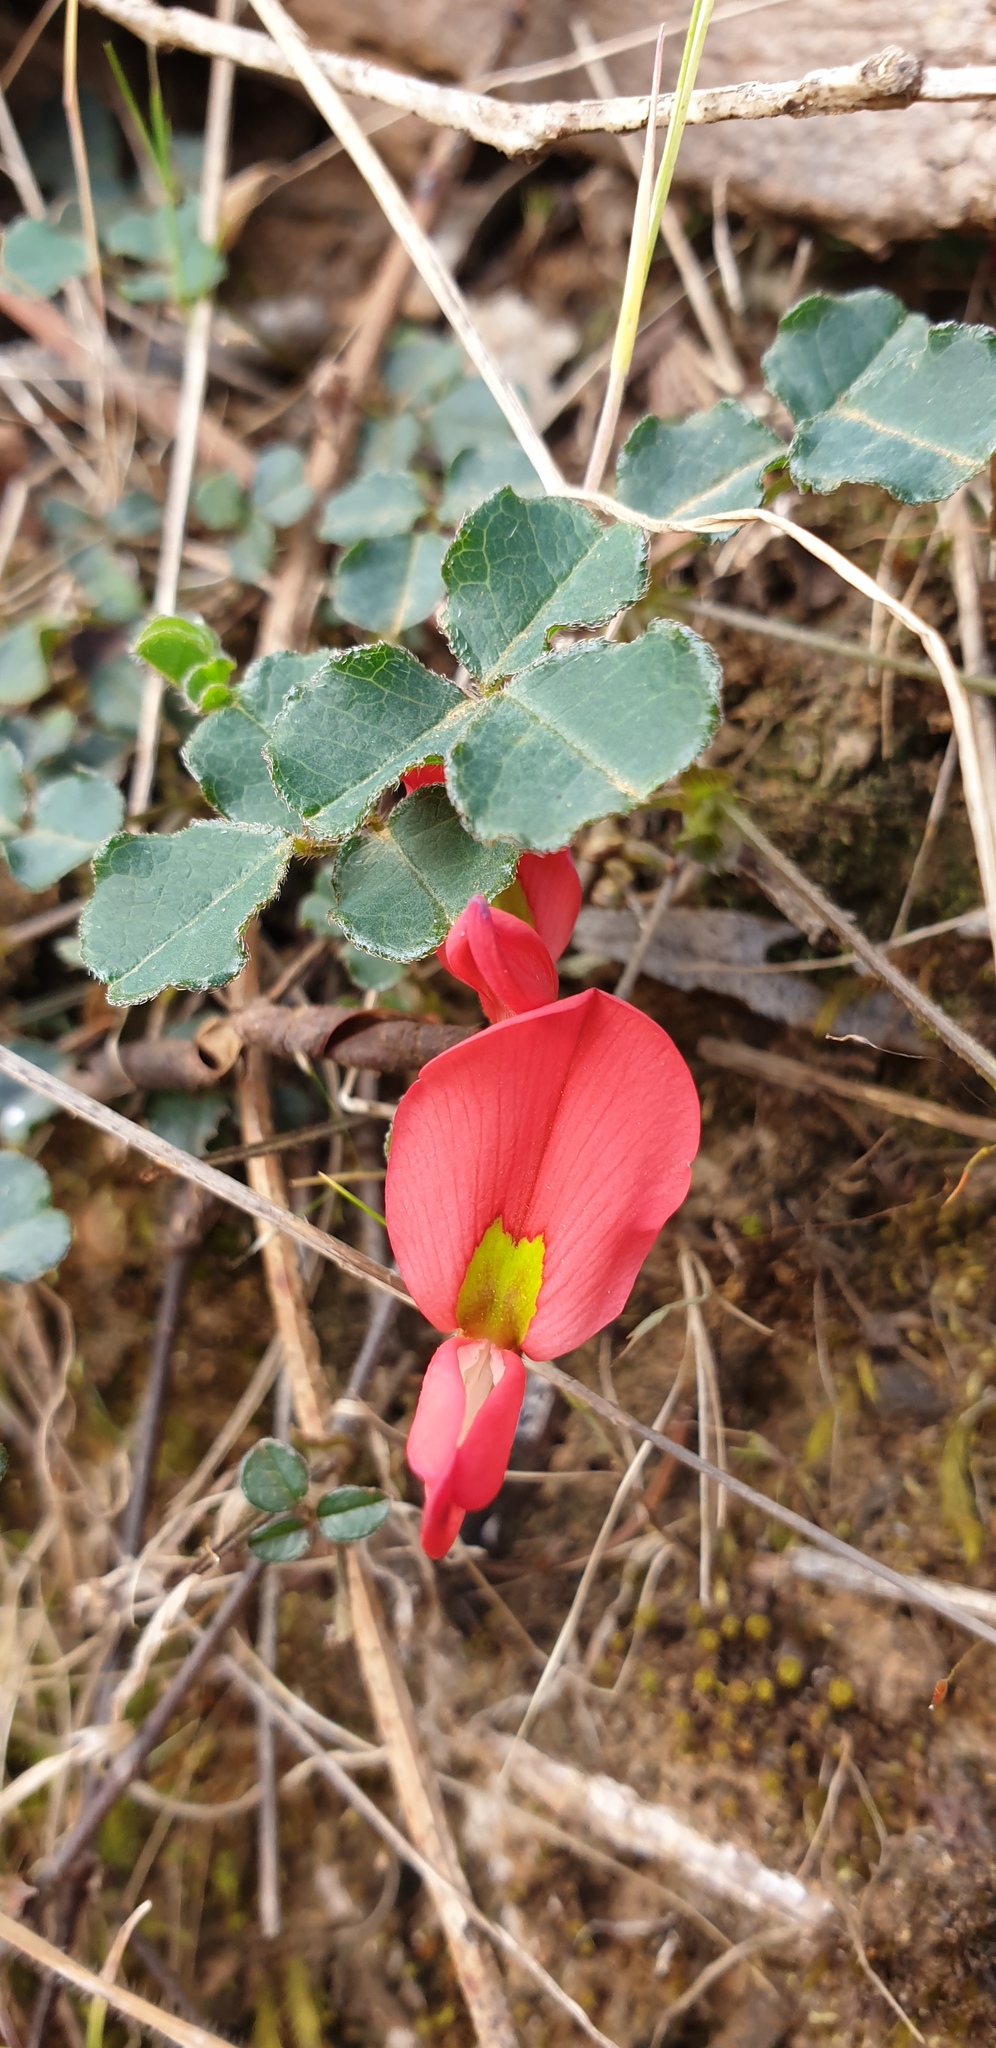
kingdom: Plantae
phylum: Tracheophyta
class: Magnoliopsida
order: Fabales
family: Fabaceae
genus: Kennedia
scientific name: Kennedia prostrata
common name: Running-postman
